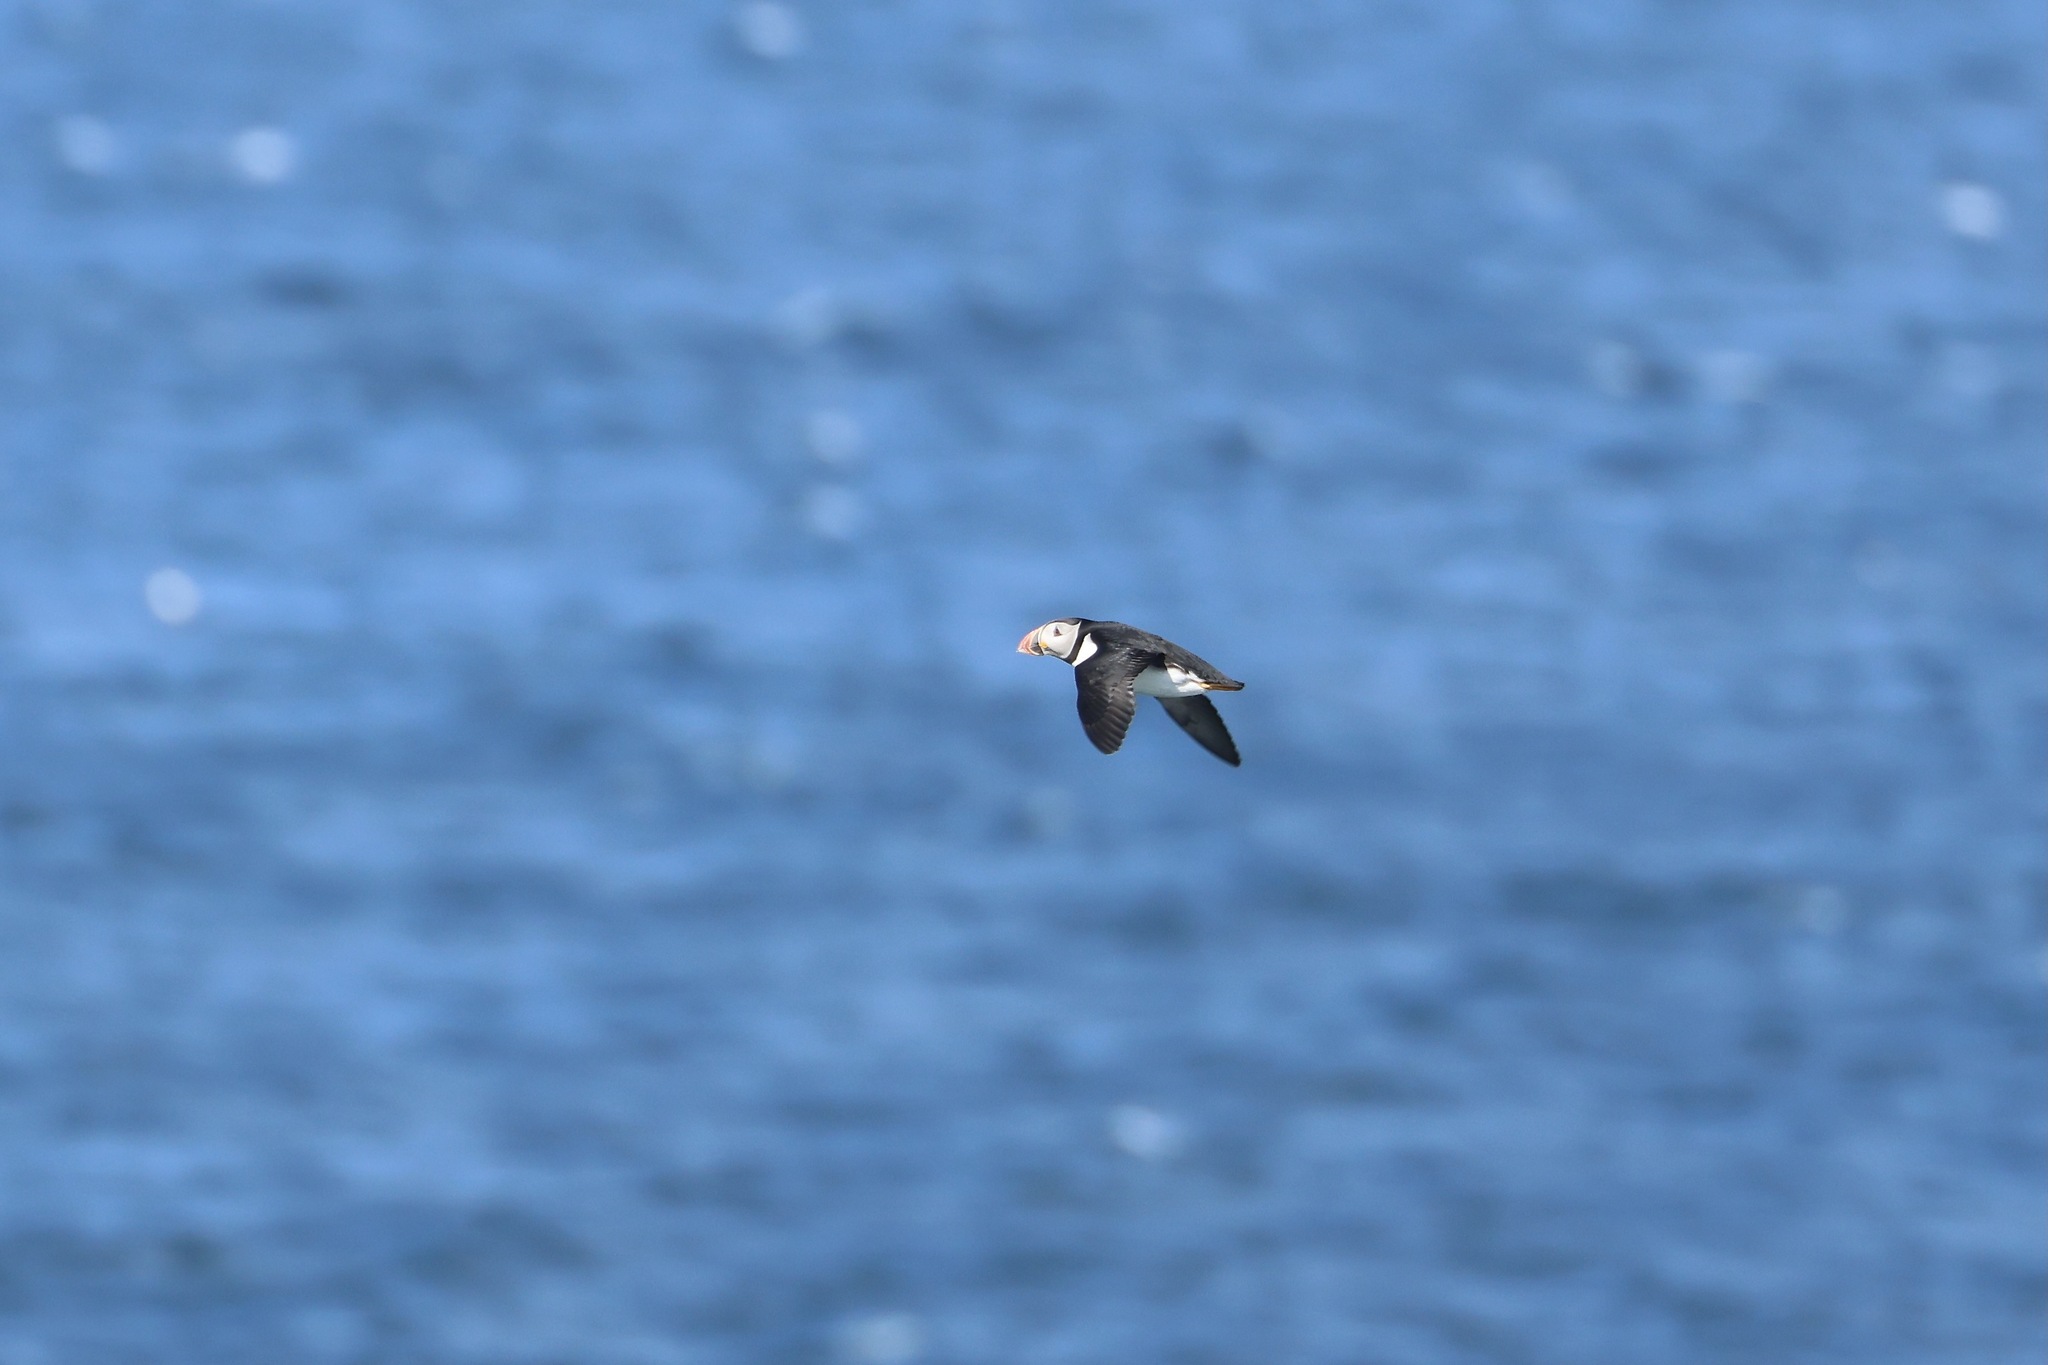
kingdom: Animalia
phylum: Chordata
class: Aves
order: Charadriiformes
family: Alcidae
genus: Fratercula
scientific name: Fratercula arctica
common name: Atlantic puffin
